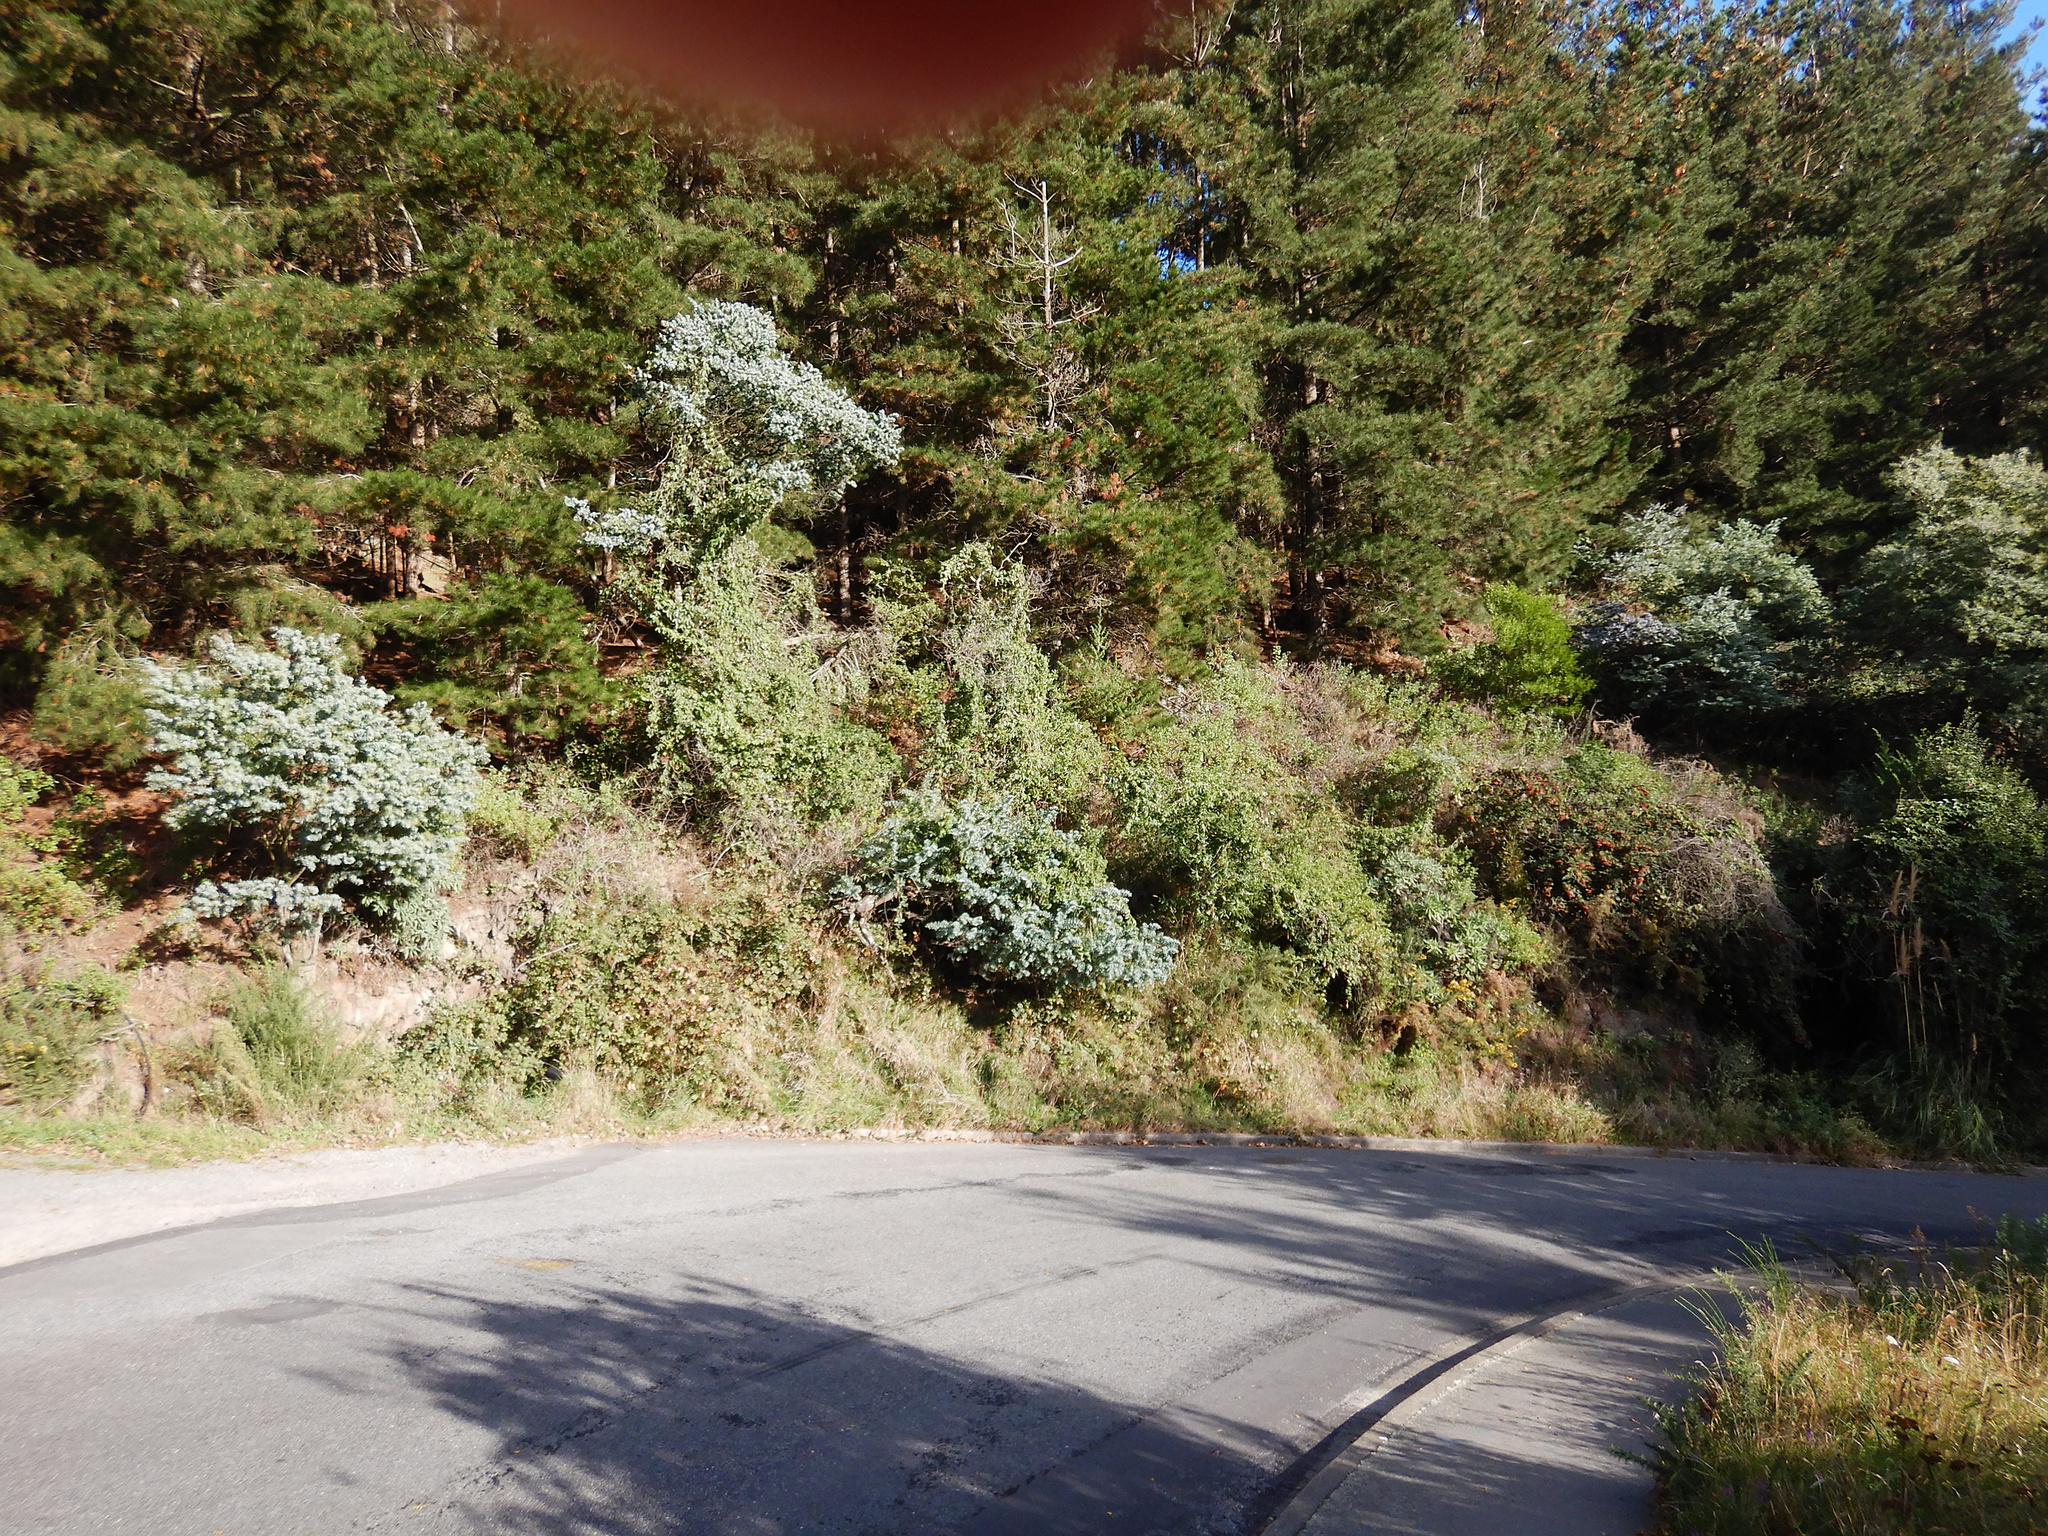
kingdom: Plantae
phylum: Tracheophyta
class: Magnoliopsida
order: Fabales
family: Fabaceae
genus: Acacia
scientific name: Acacia baileyana
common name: Cootamundra wattle
